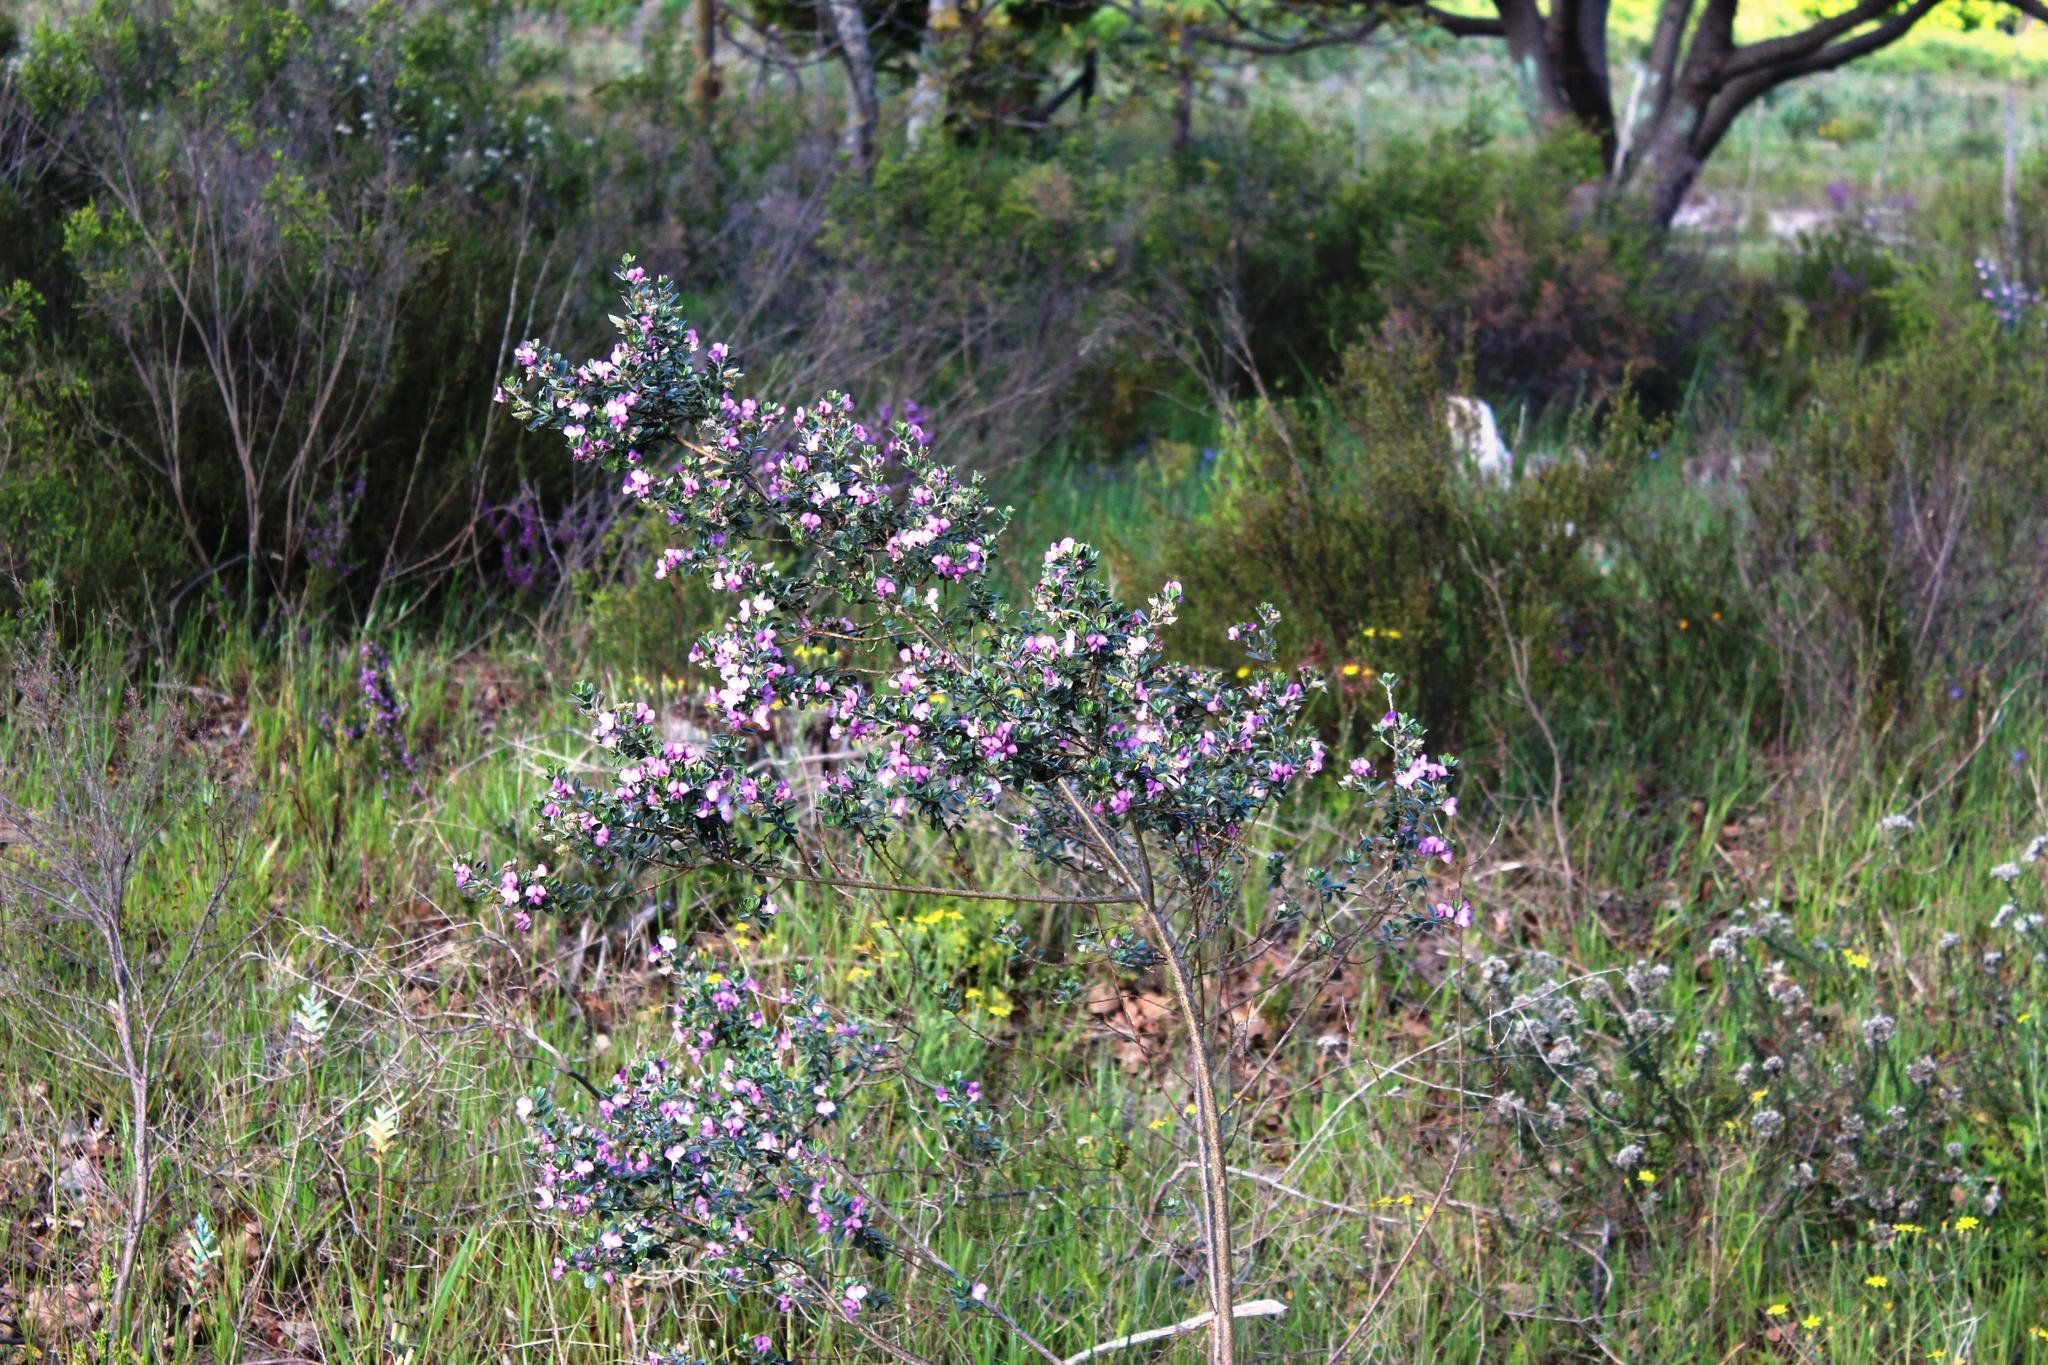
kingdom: Plantae
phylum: Tracheophyta
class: Magnoliopsida
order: Fabales
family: Fabaceae
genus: Podalyria
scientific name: Podalyria myrtillifolia
